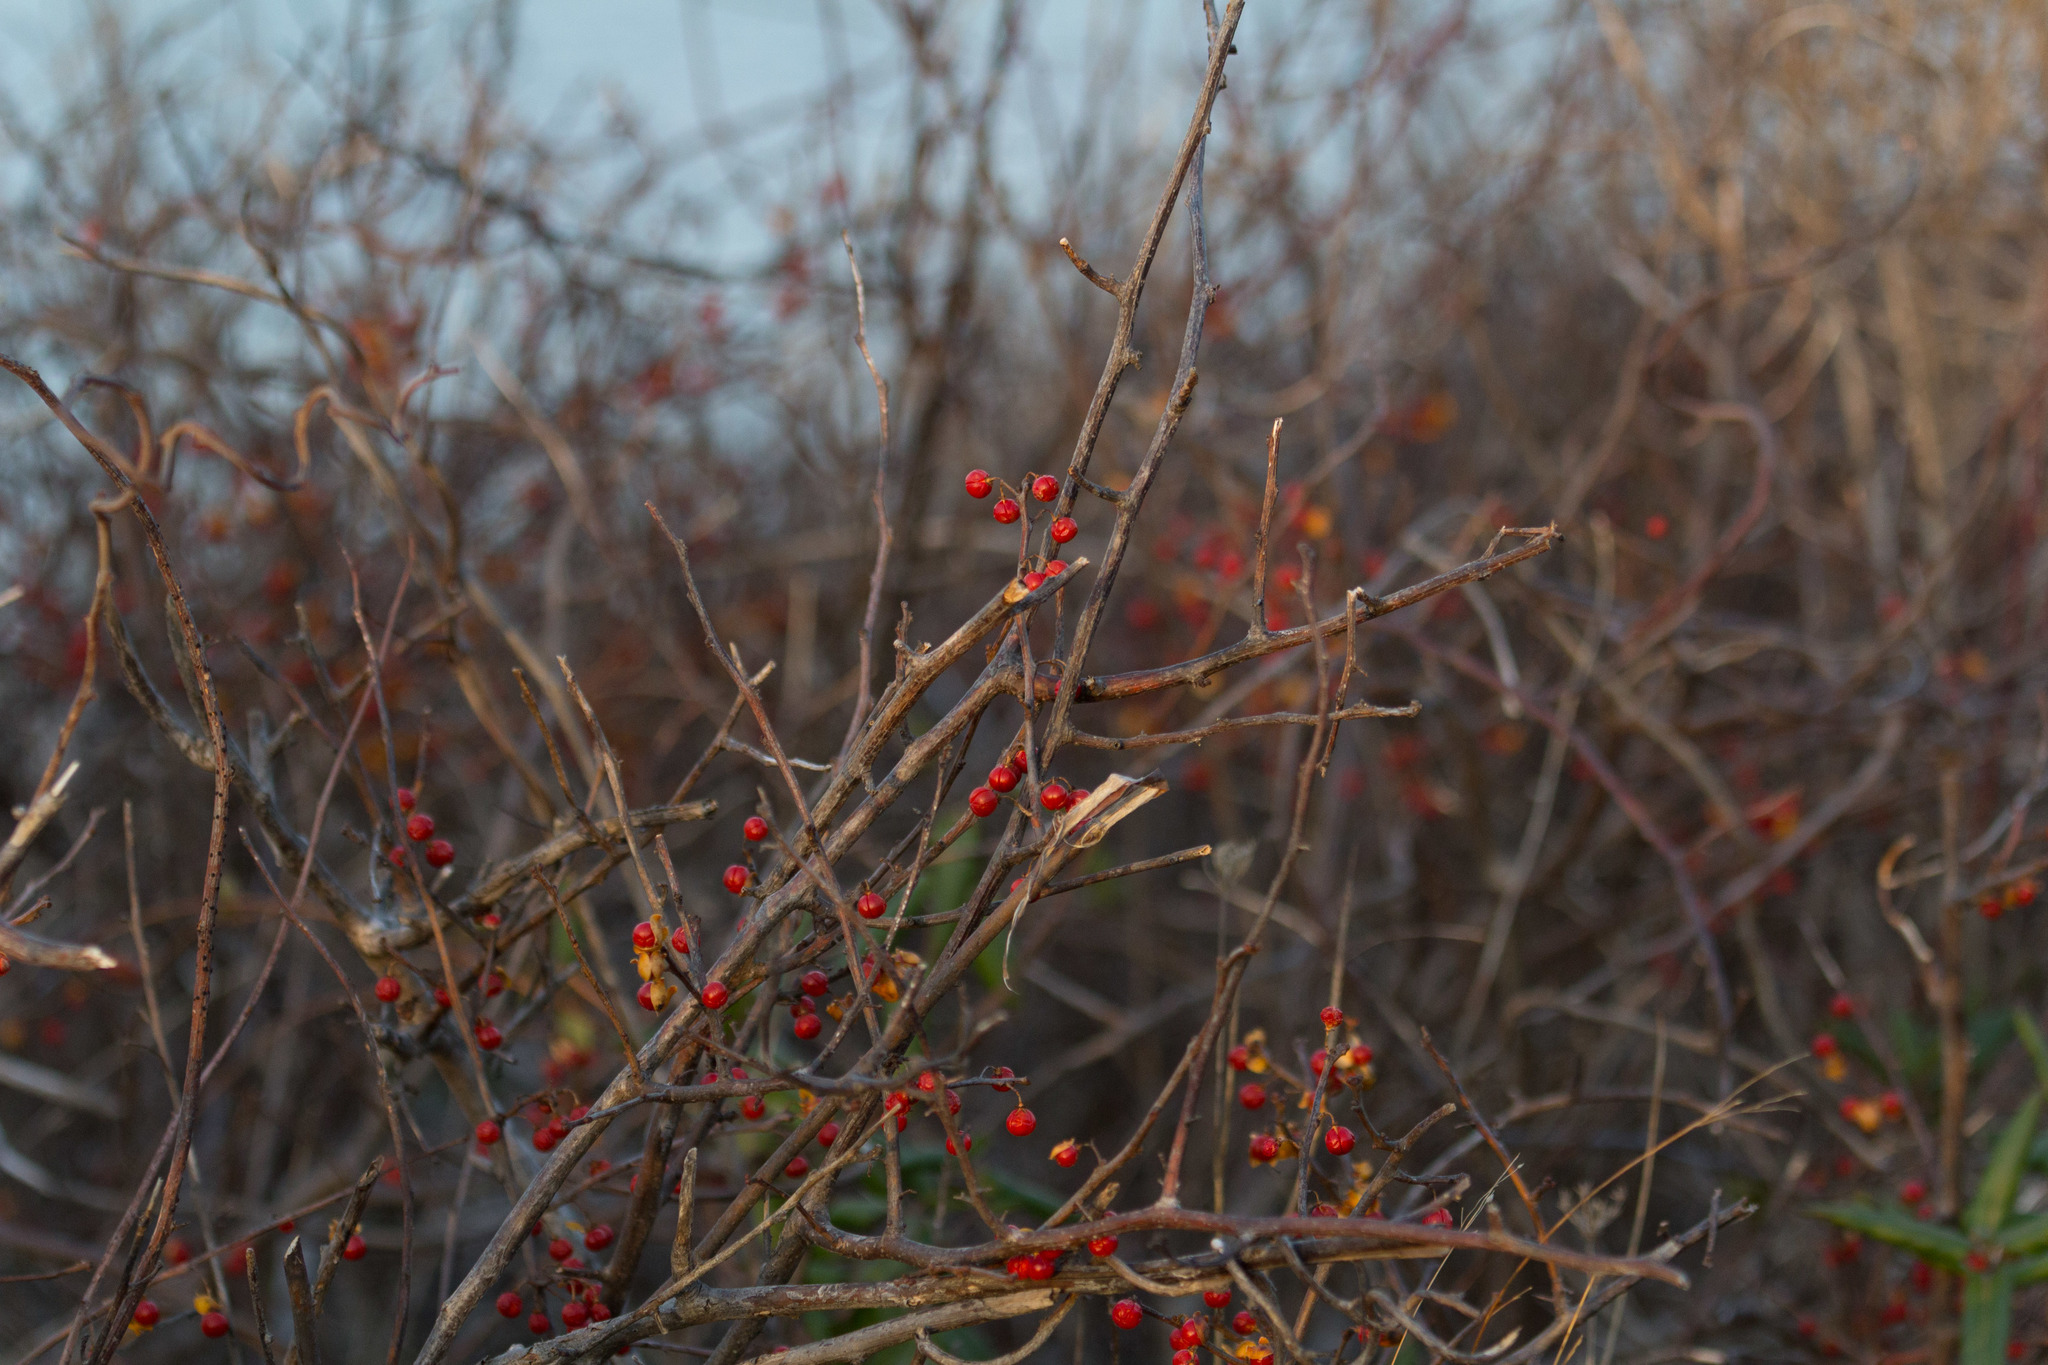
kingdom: Plantae
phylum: Tracheophyta
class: Magnoliopsida
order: Celastrales
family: Celastraceae
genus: Celastrus
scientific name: Celastrus orbiculatus
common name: Oriental bittersweet
